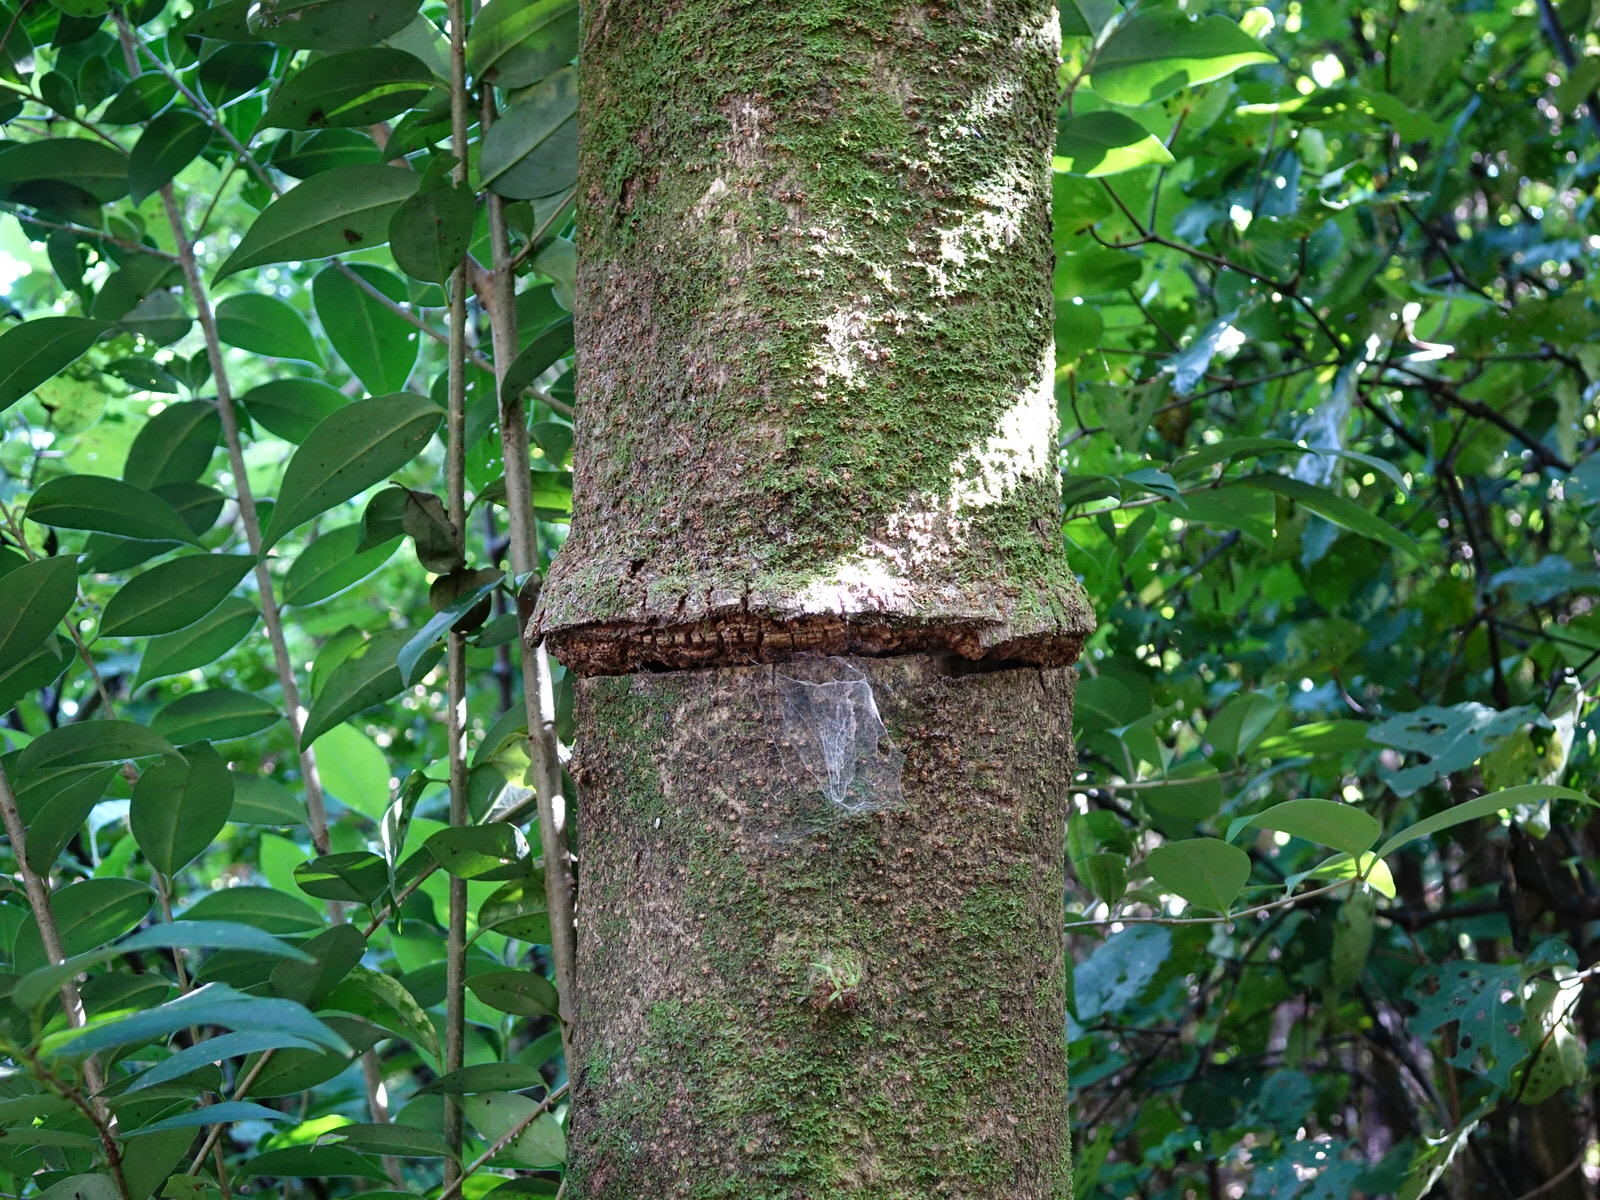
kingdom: Plantae
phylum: Tracheophyta
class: Magnoliopsida
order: Lamiales
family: Oleaceae
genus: Ligustrum
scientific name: Ligustrum lucidum
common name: Glossy privet
